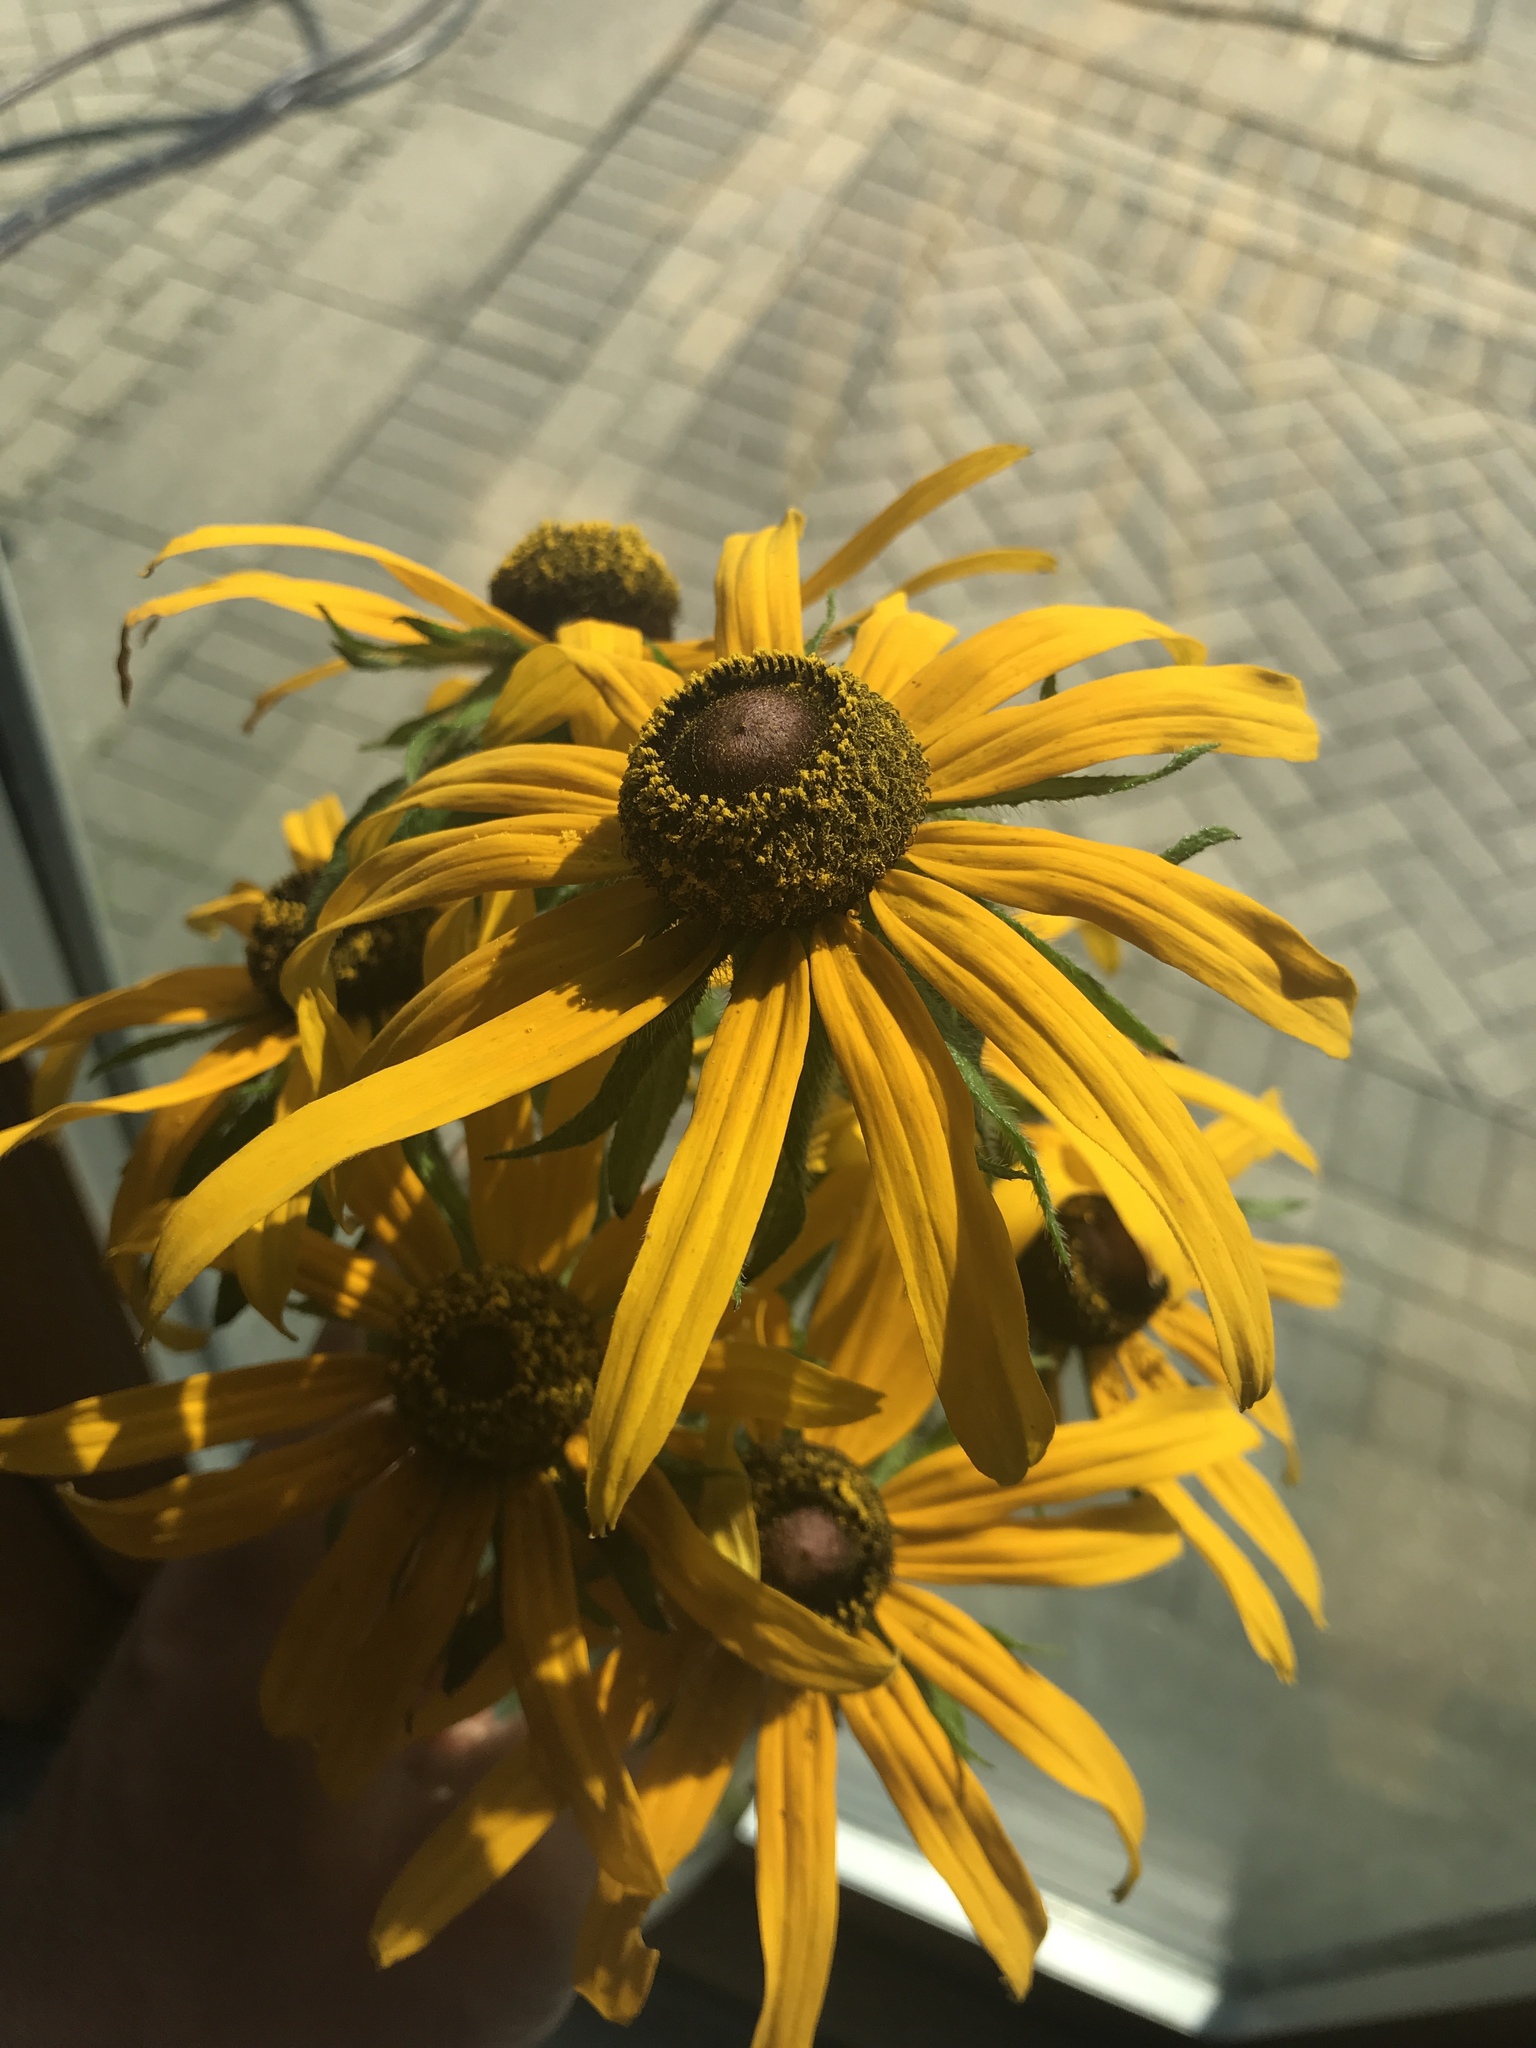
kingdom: Plantae
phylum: Tracheophyta
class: Magnoliopsida
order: Asterales
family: Asteraceae
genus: Rudbeckia
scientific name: Rudbeckia hirta
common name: Black-eyed-susan
